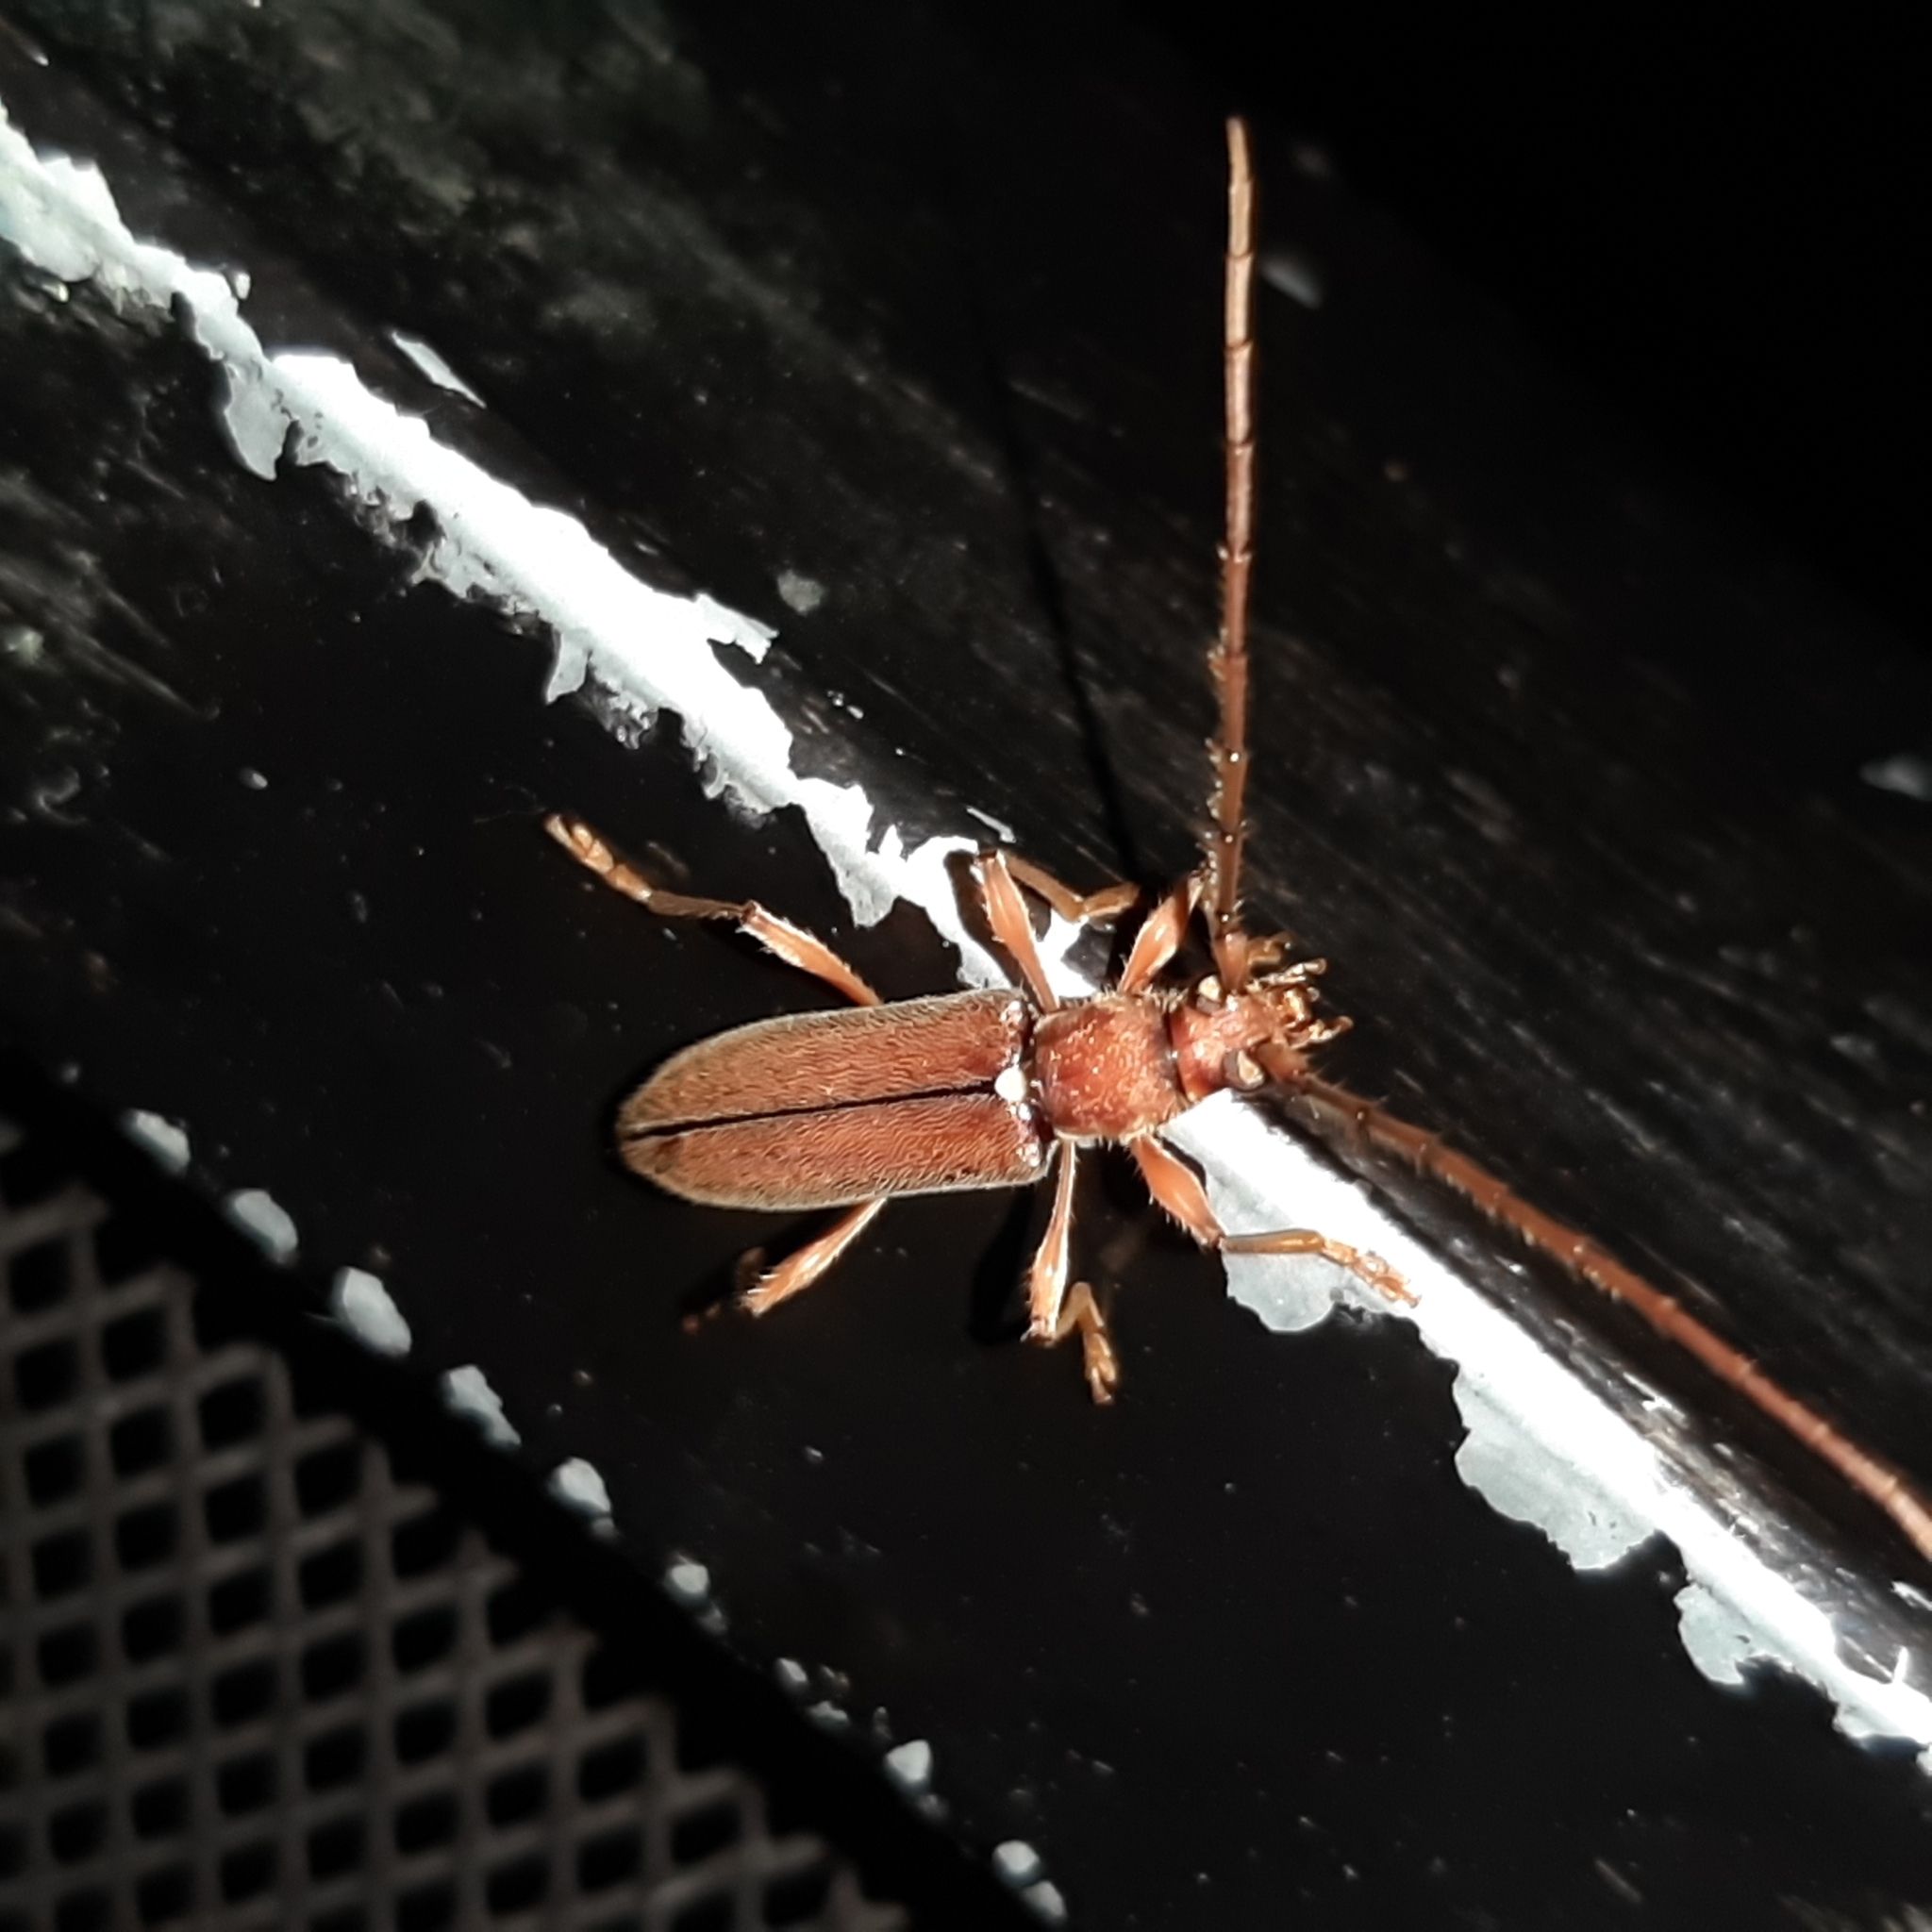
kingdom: Animalia
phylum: Arthropoda
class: Insecta
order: Coleoptera
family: Cerambycidae
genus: Miltesthus
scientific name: Miltesthus marginatus
